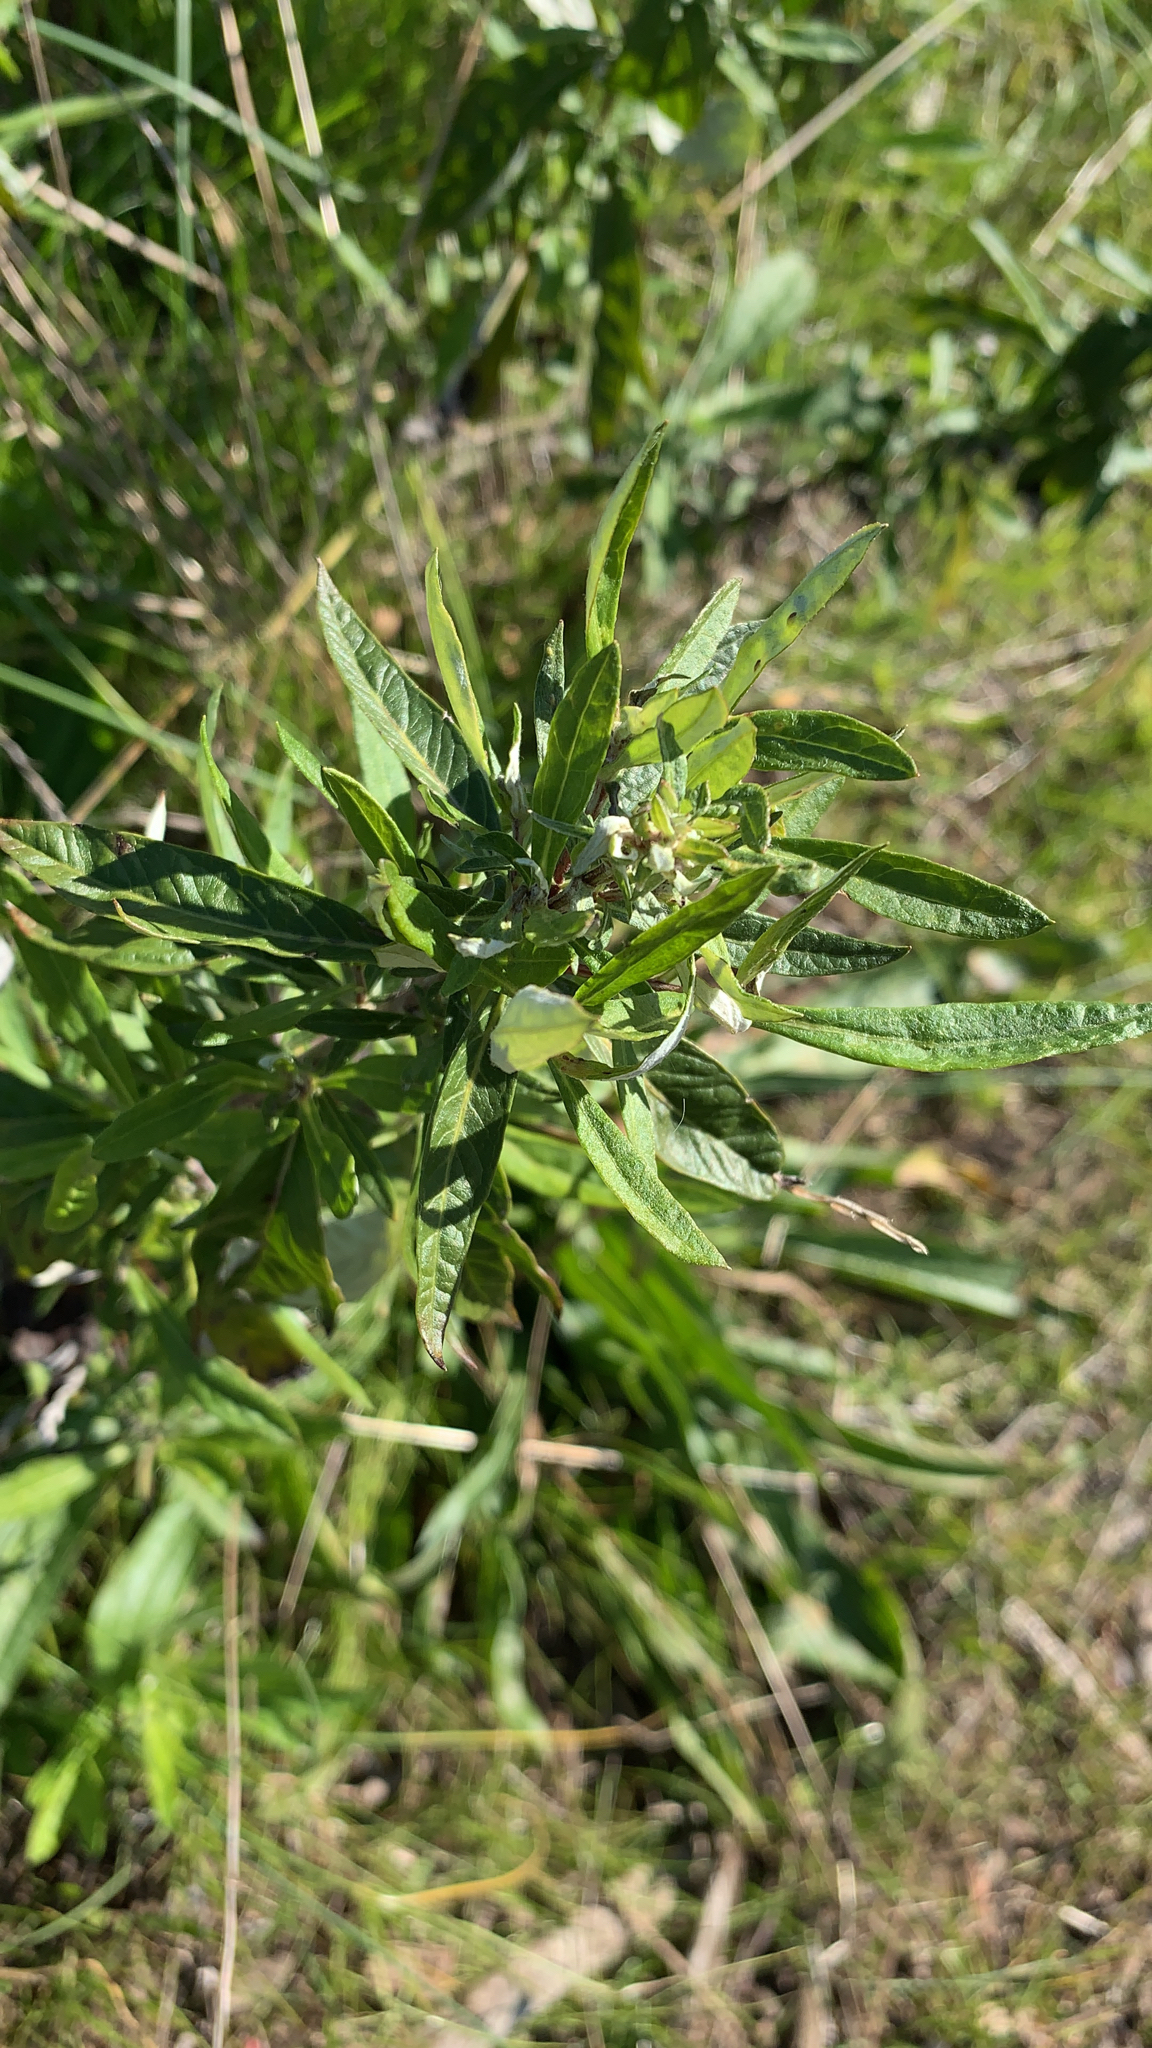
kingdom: Plantae
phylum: Tracheophyta
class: Magnoliopsida
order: Asterales
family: Asteraceae
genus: Artemisia
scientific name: Artemisia douglasiana
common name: Northwest mugwort
